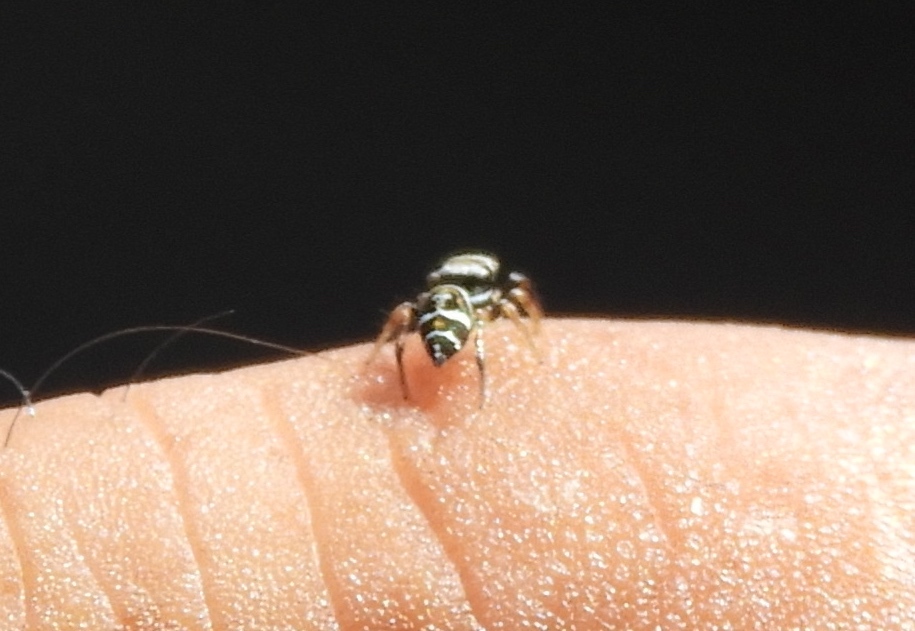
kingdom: Animalia
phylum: Arthropoda
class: Arachnida
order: Araneae
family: Salticidae
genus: Sassacus
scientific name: Sassacus
